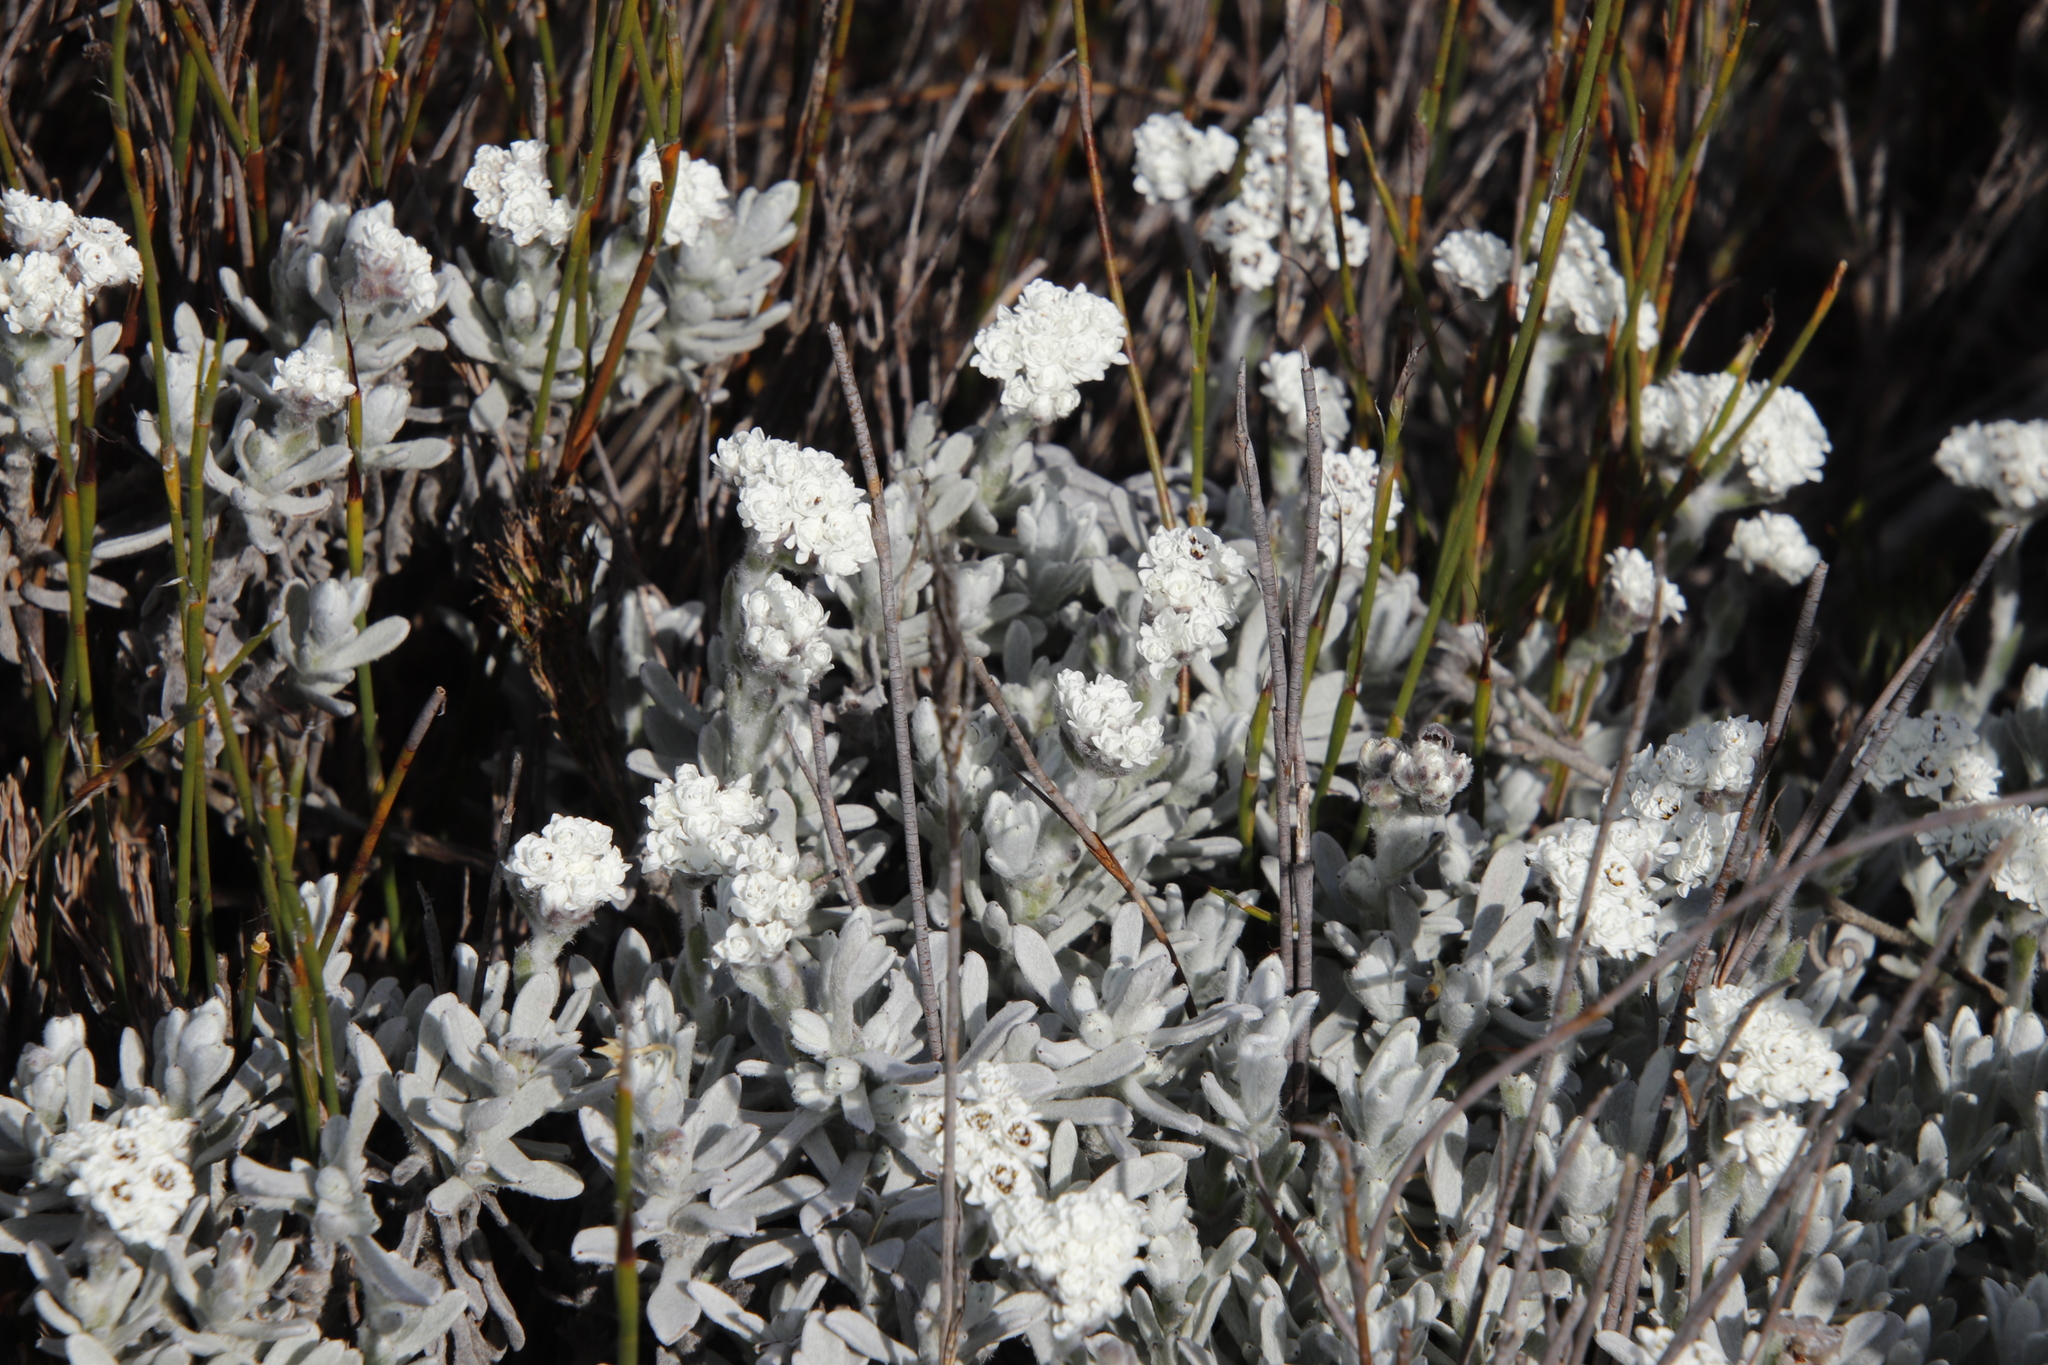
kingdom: Plantae
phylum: Tracheophyta
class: Magnoliopsida
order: Asterales
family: Asteraceae
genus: Petalacte
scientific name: Petalacte coronata
